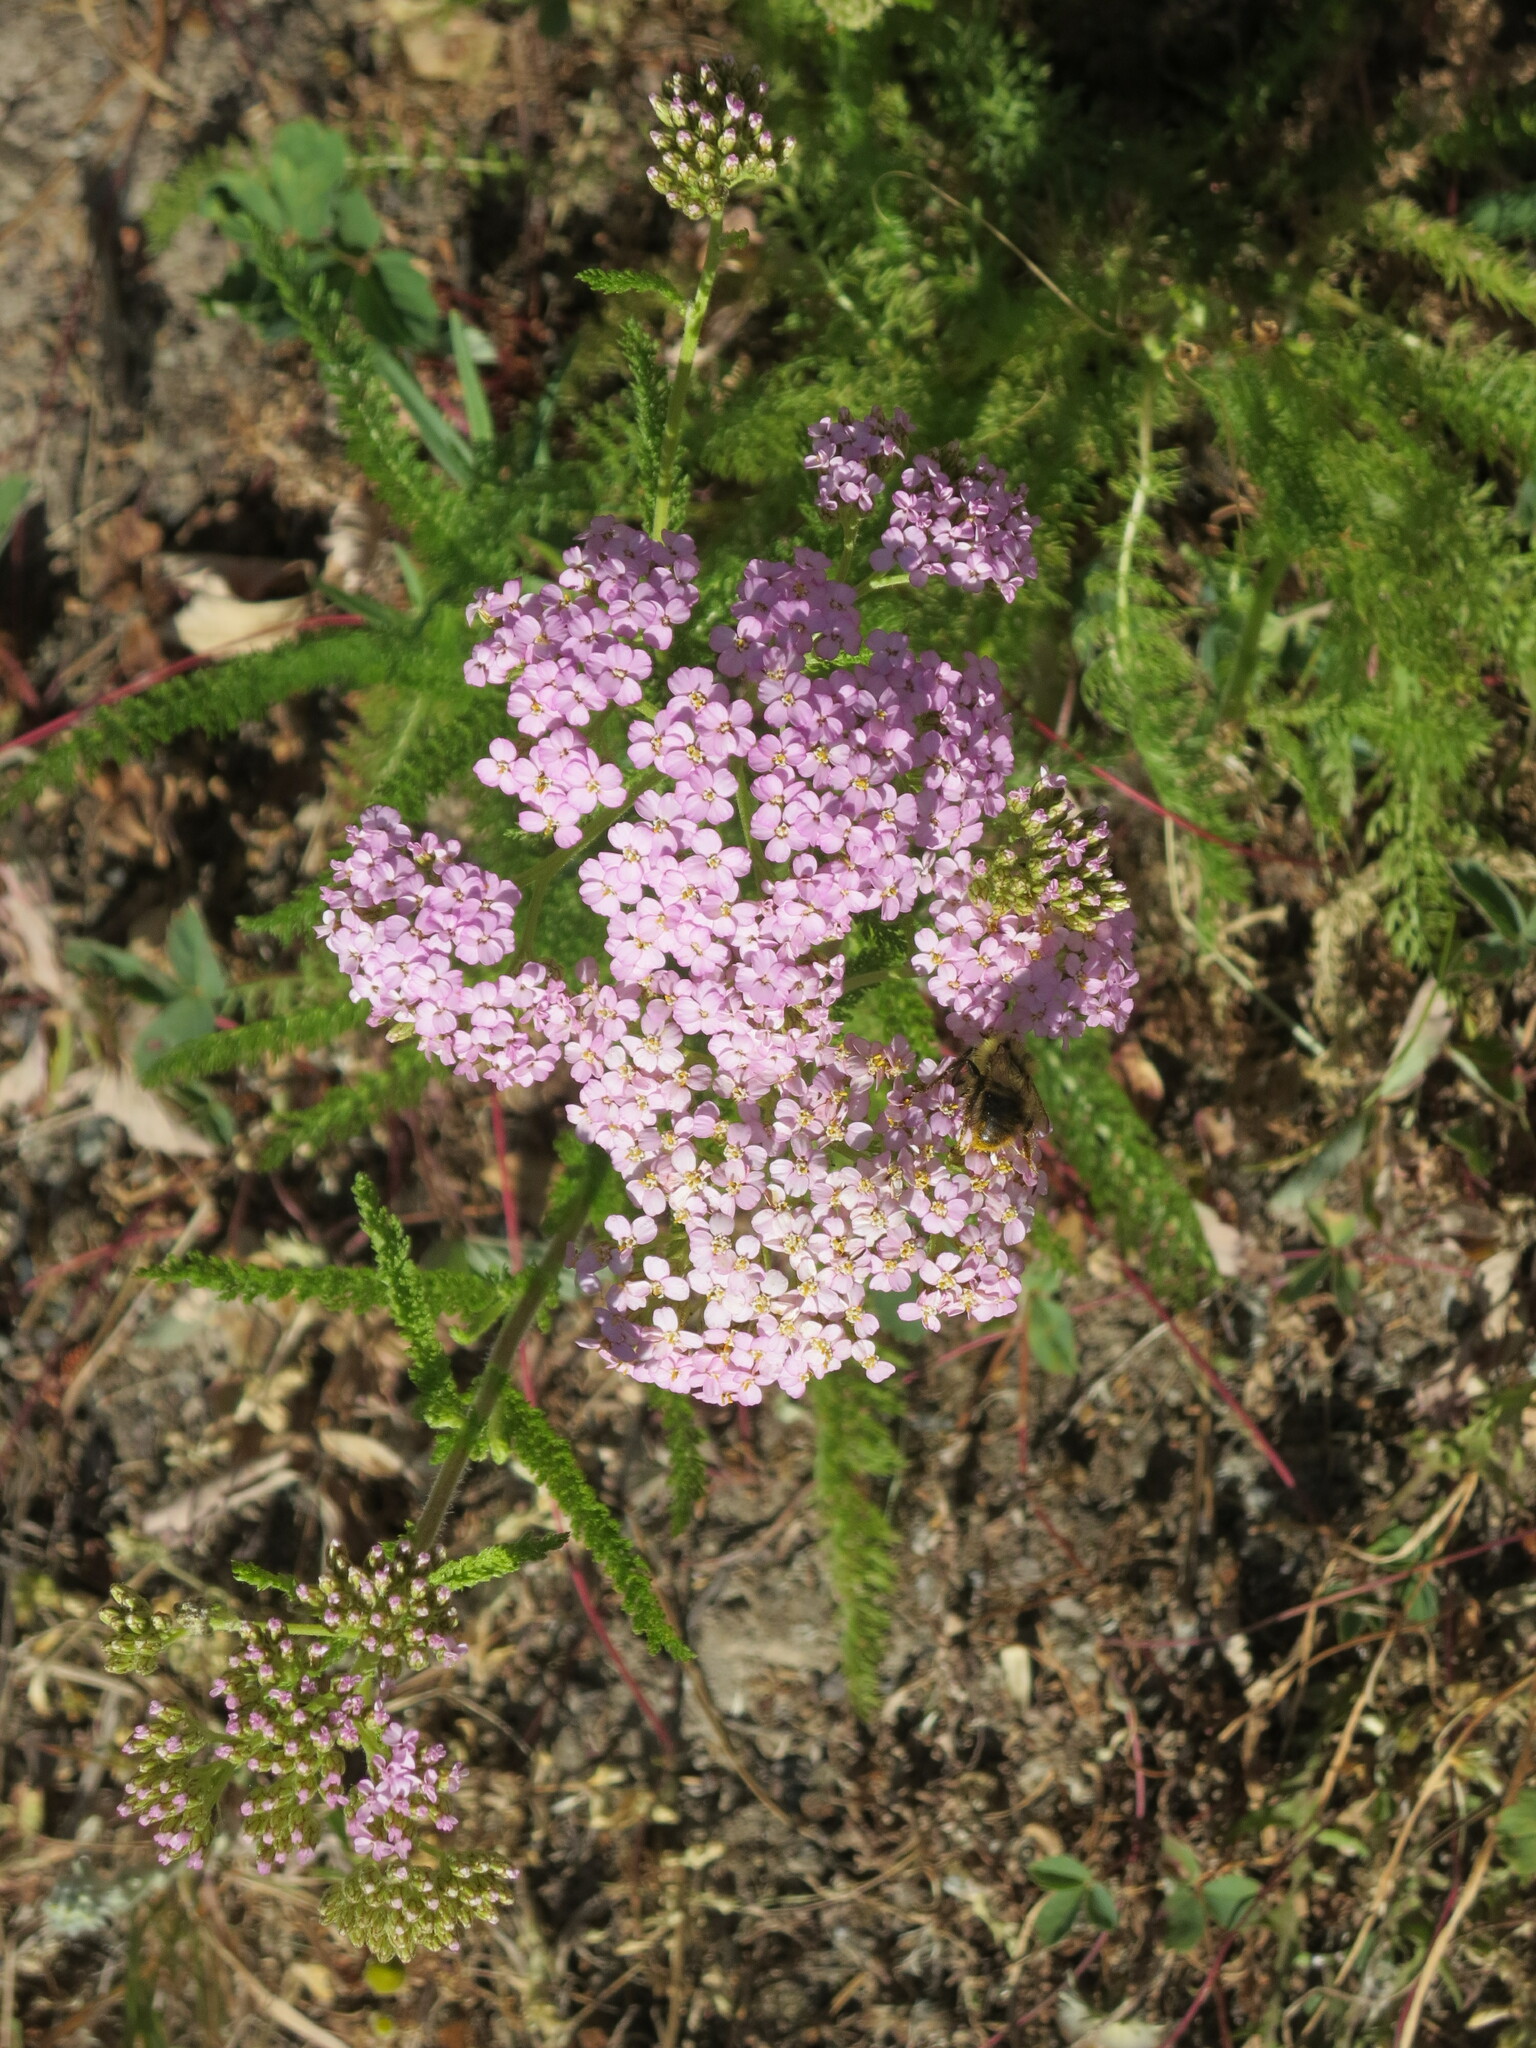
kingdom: Plantae
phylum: Tracheophyta
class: Magnoliopsida
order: Asterales
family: Asteraceae
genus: Achillea
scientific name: Achillea millefolium
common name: Yarrow
